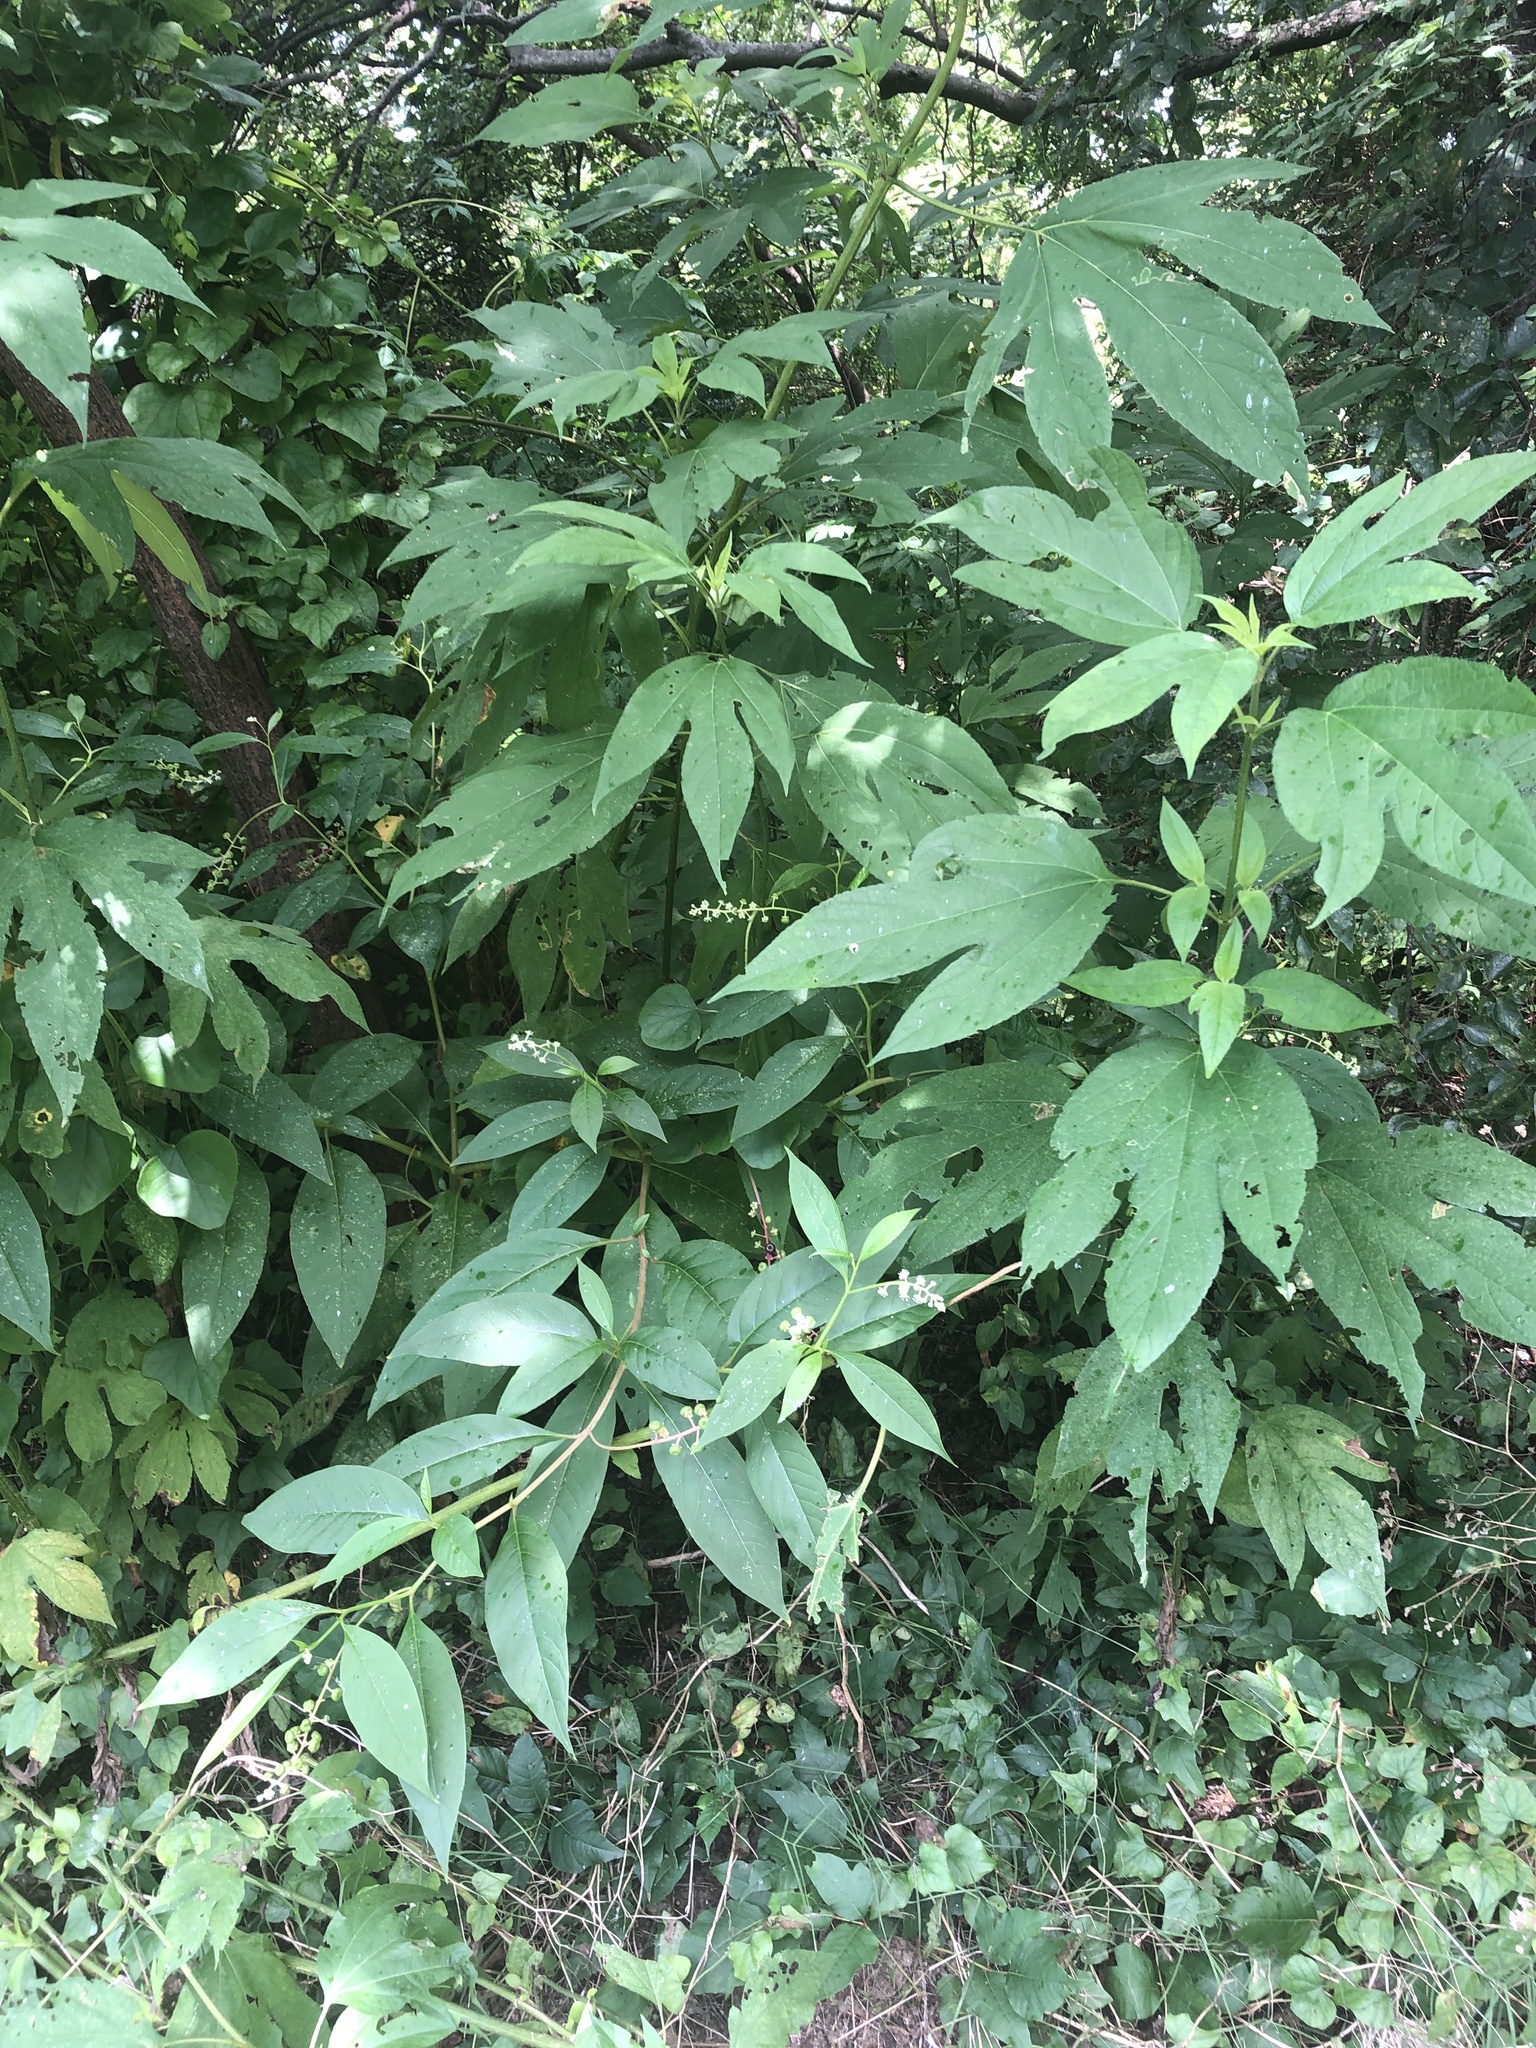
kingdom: Plantae
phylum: Tracheophyta
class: Magnoliopsida
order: Caryophyllales
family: Phytolaccaceae
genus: Phytolacca
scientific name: Phytolacca americana
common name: American pokeweed
